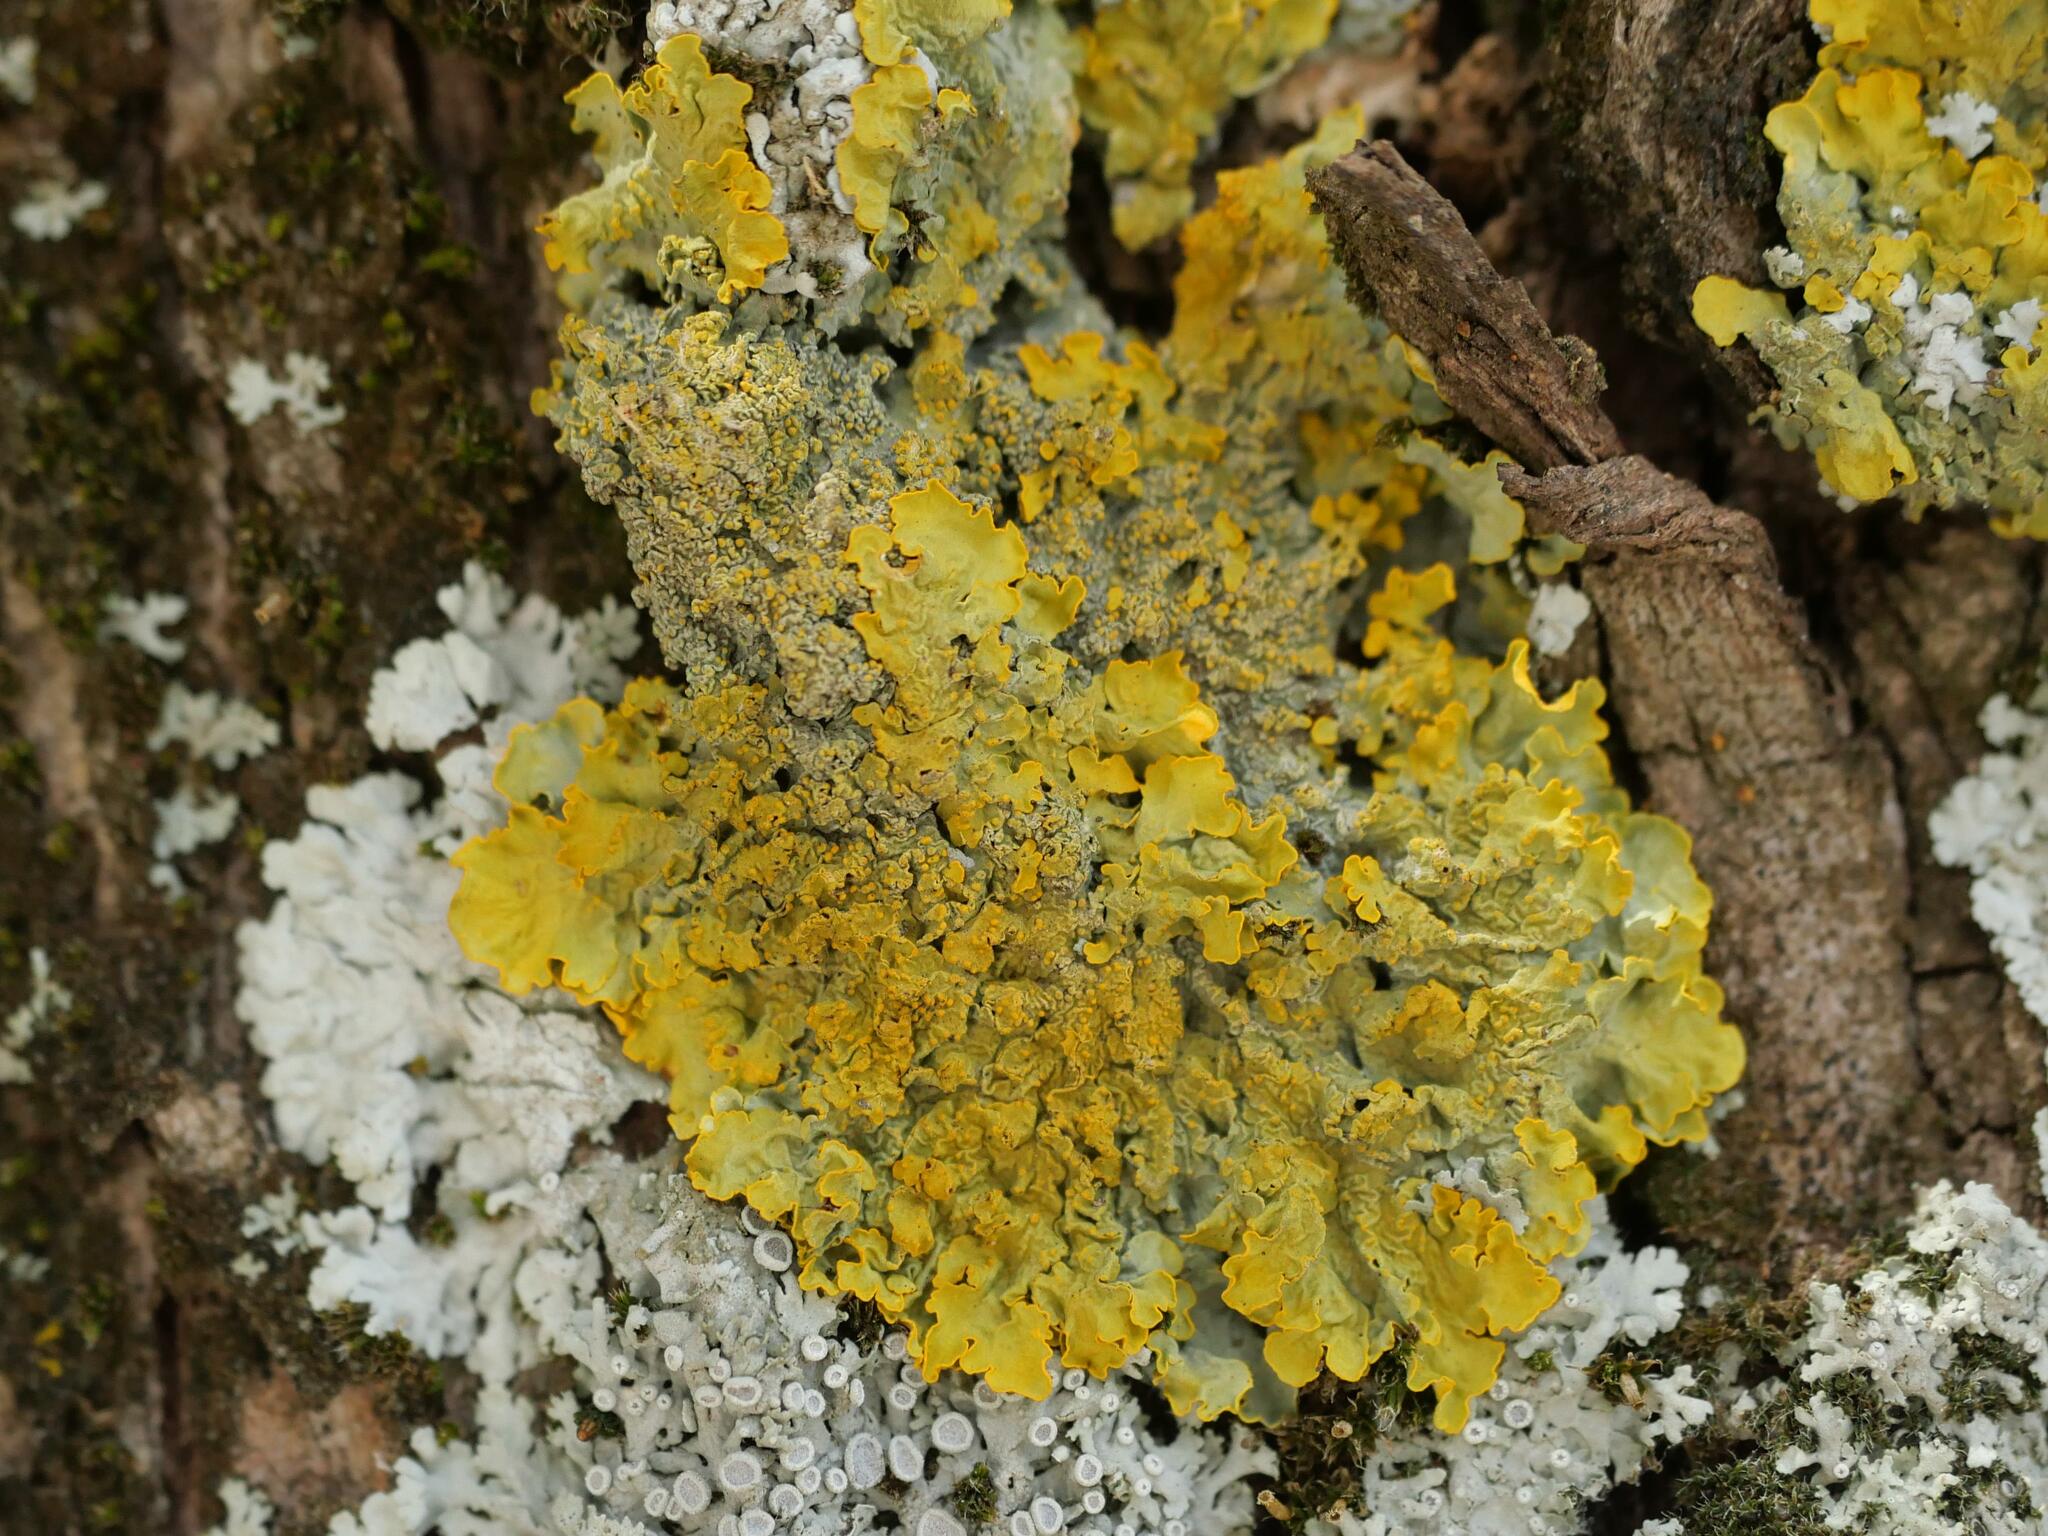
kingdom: Fungi
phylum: Ascomycota
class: Lecanoromycetes
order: Teloschistales
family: Teloschistaceae
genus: Xanthoria
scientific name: Xanthoria parietina
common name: Common orange lichen
